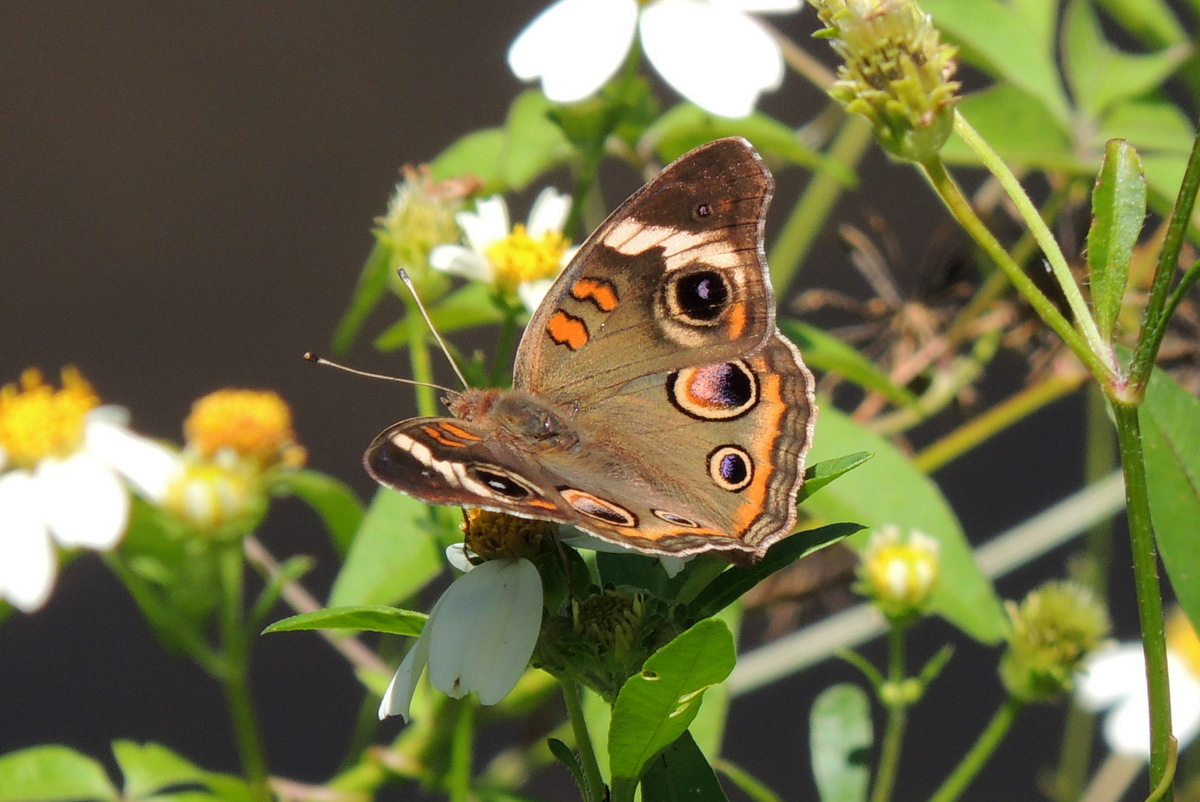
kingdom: Animalia
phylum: Arthropoda
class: Insecta
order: Lepidoptera
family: Nymphalidae
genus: Junonia
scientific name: Junonia coenia
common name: Common buckeye
